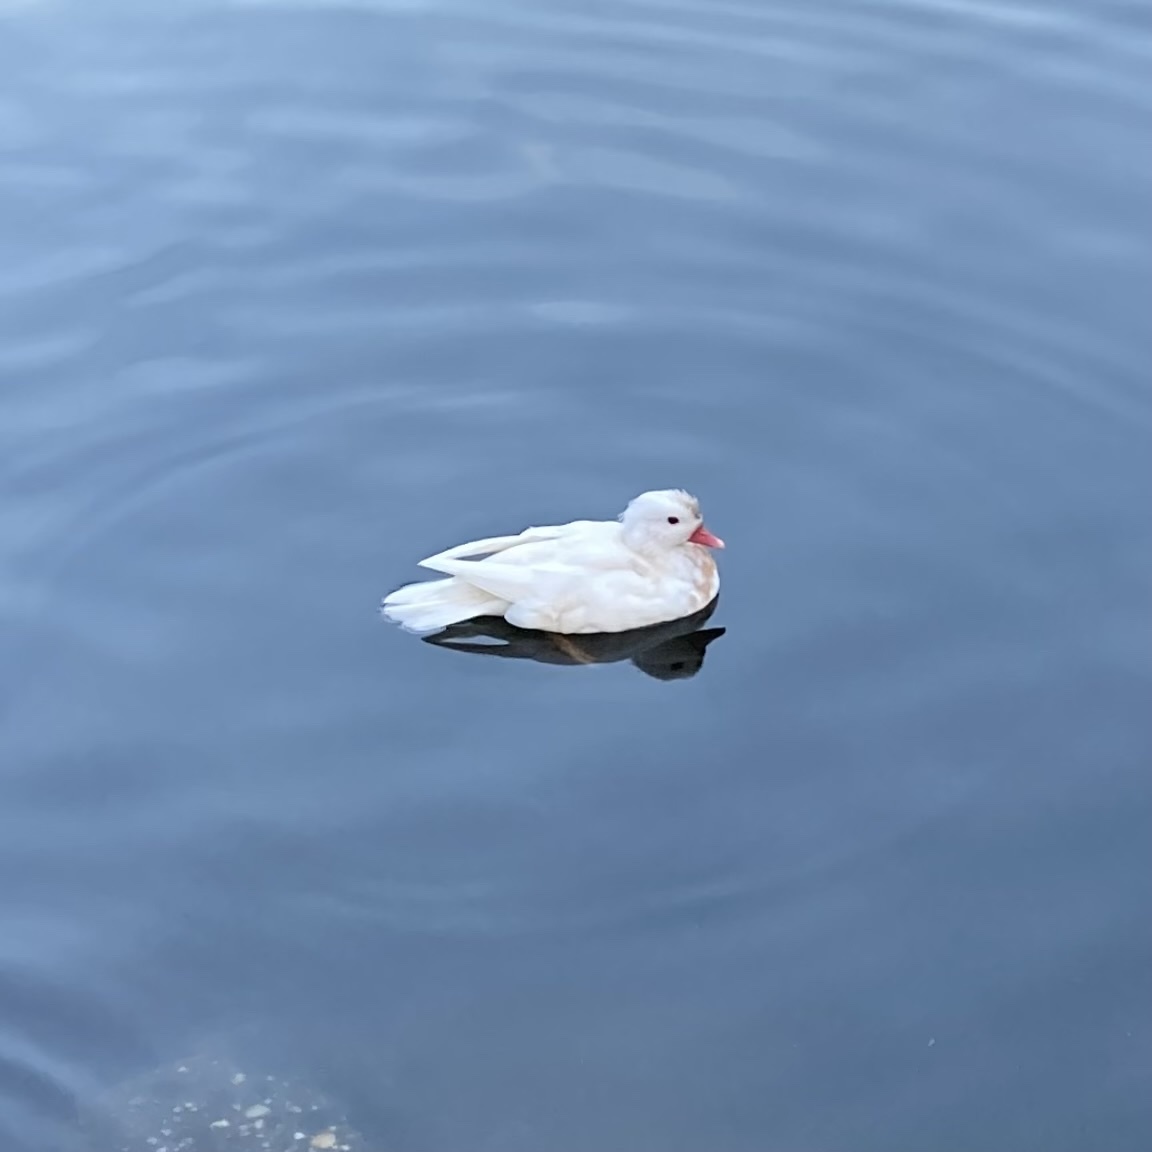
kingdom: Animalia
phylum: Chordata
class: Aves
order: Anseriformes
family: Anatidae
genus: Aix
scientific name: Aix galericulata
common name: Mandarin duck
